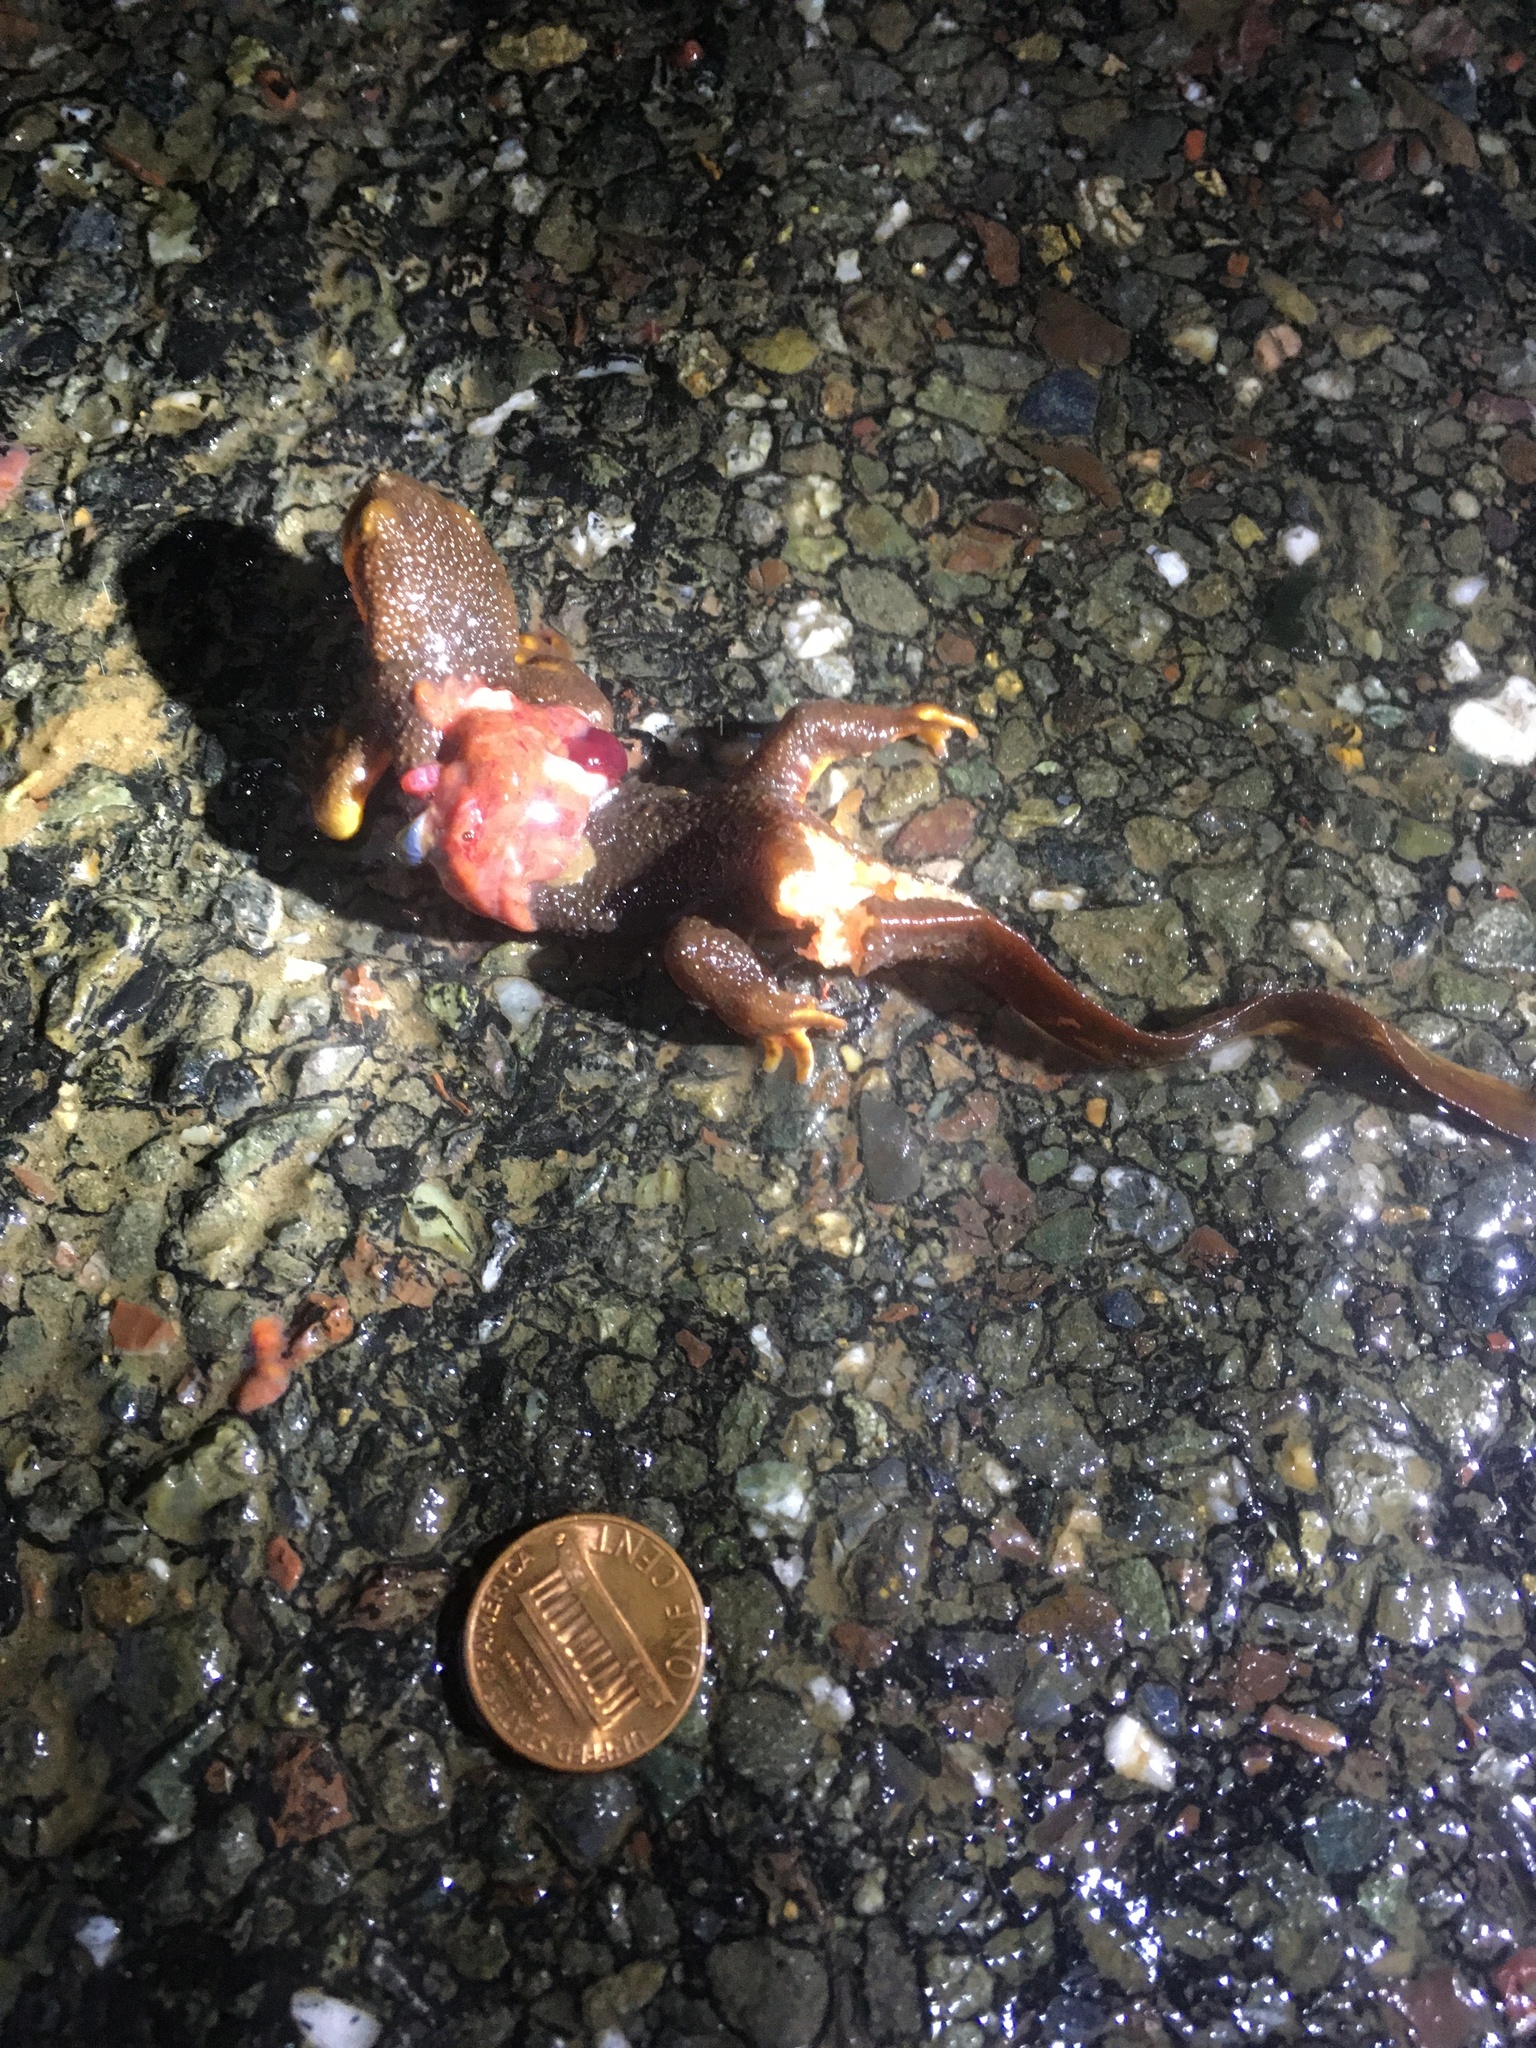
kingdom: Animalia
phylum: Chordata
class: Amphibia
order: Caudata
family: Salamandridae
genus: Taricha
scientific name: Taricha
